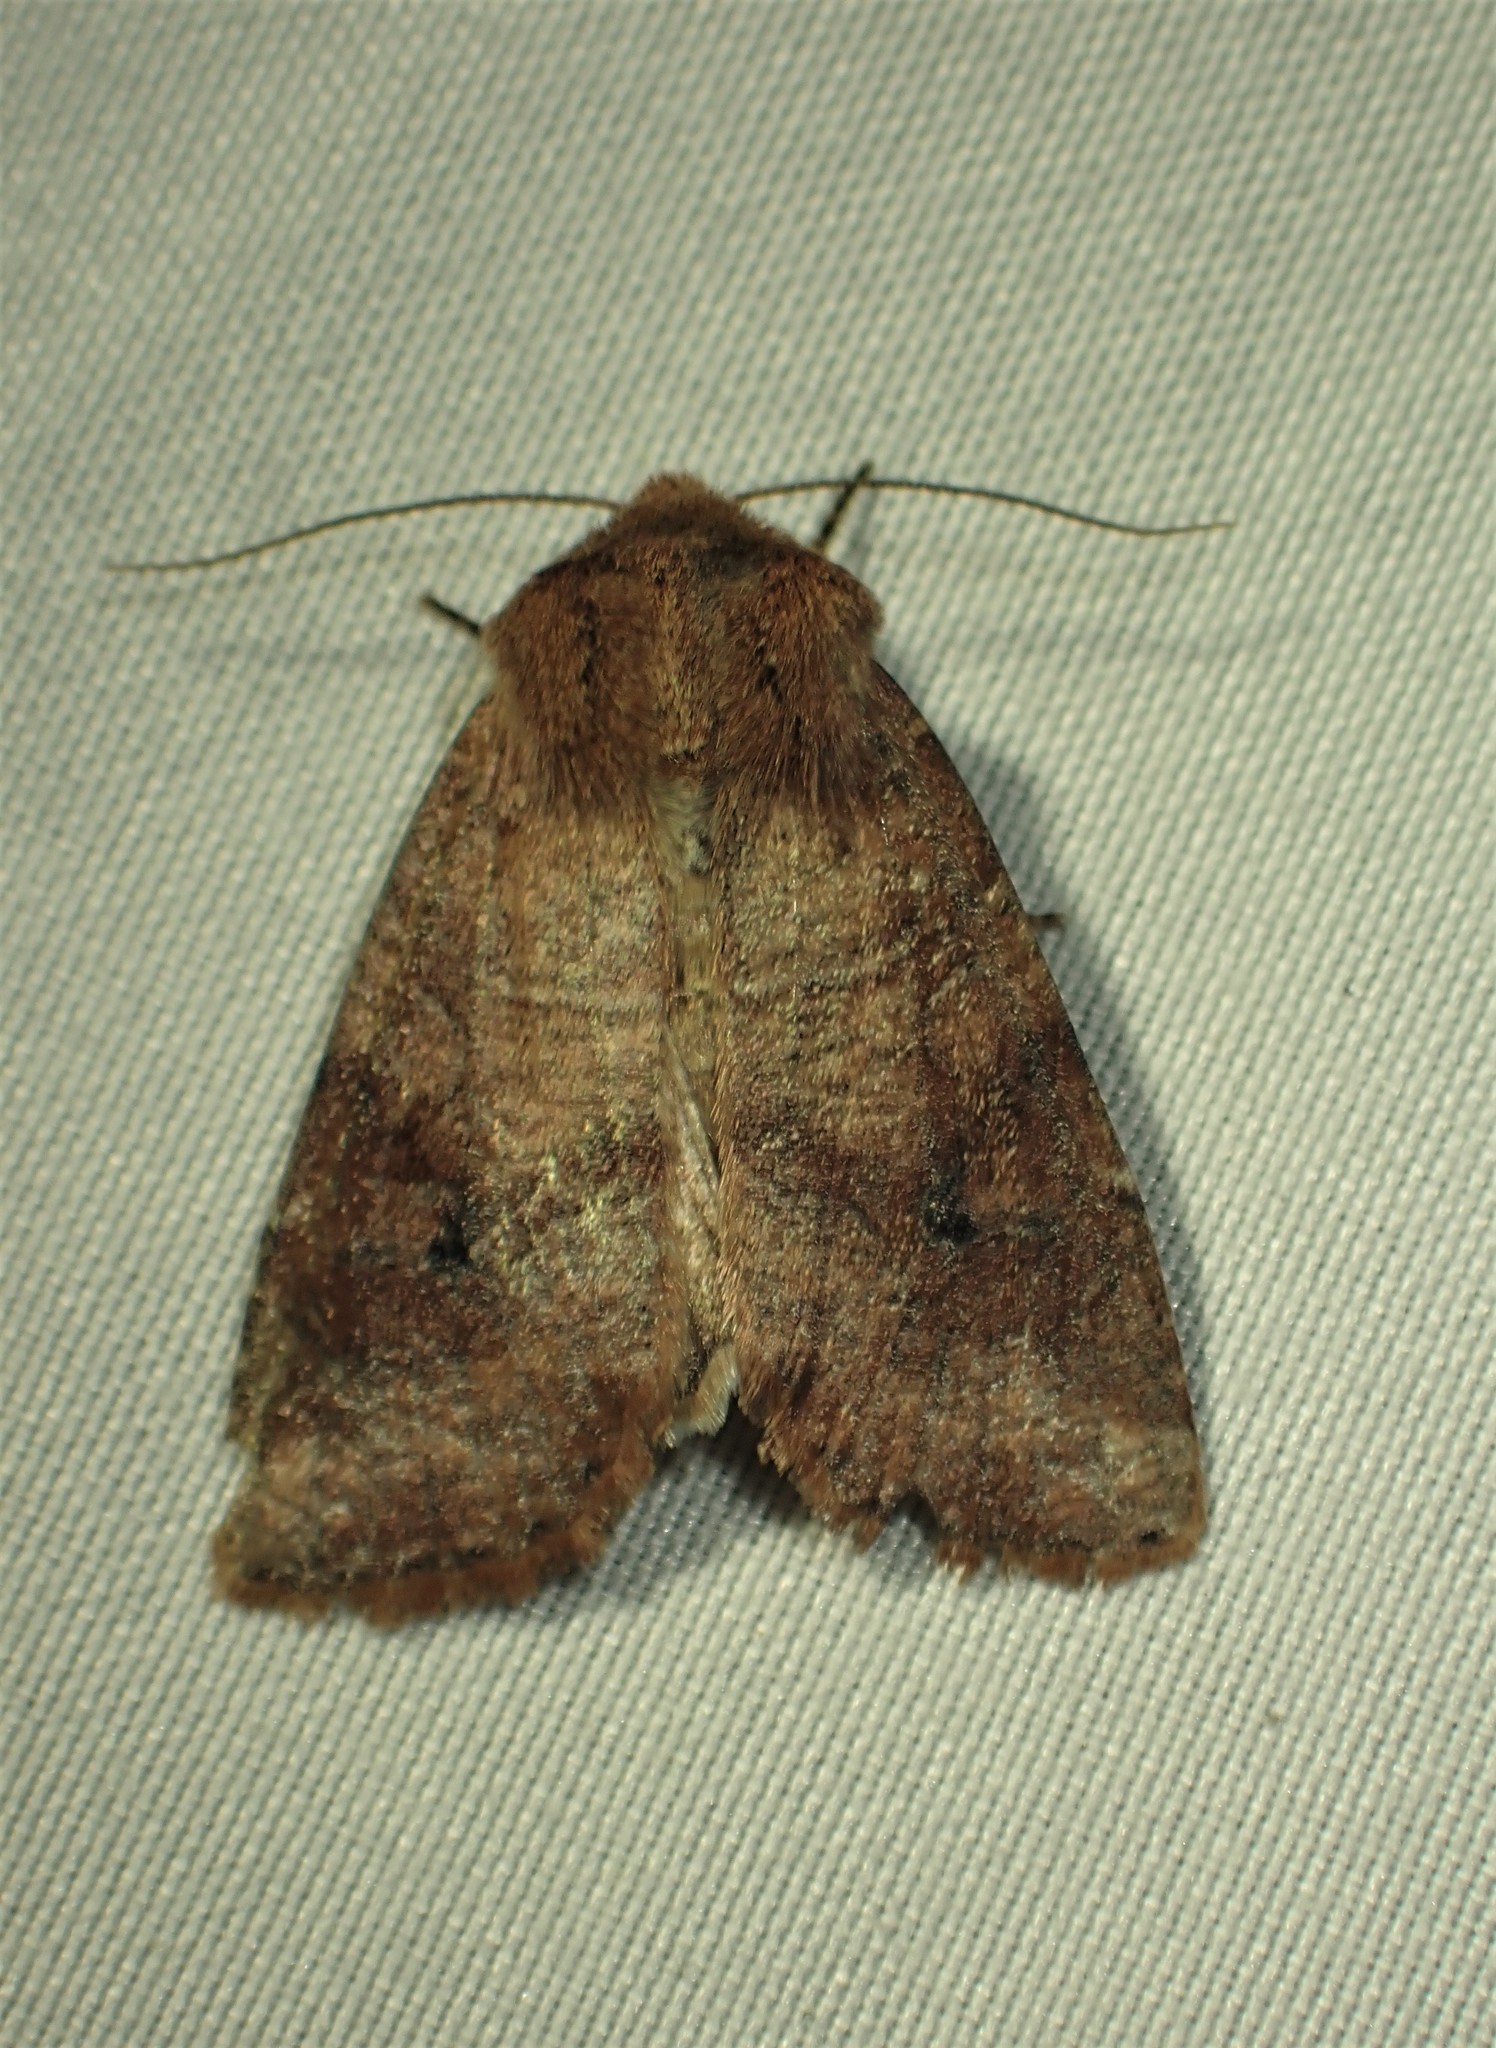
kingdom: Animalia
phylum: Arthropoda
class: Insecta
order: Lepidoptera
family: Noctuidae
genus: Crocigrapha
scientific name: Crocigrapha normani
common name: Norman's quaker
